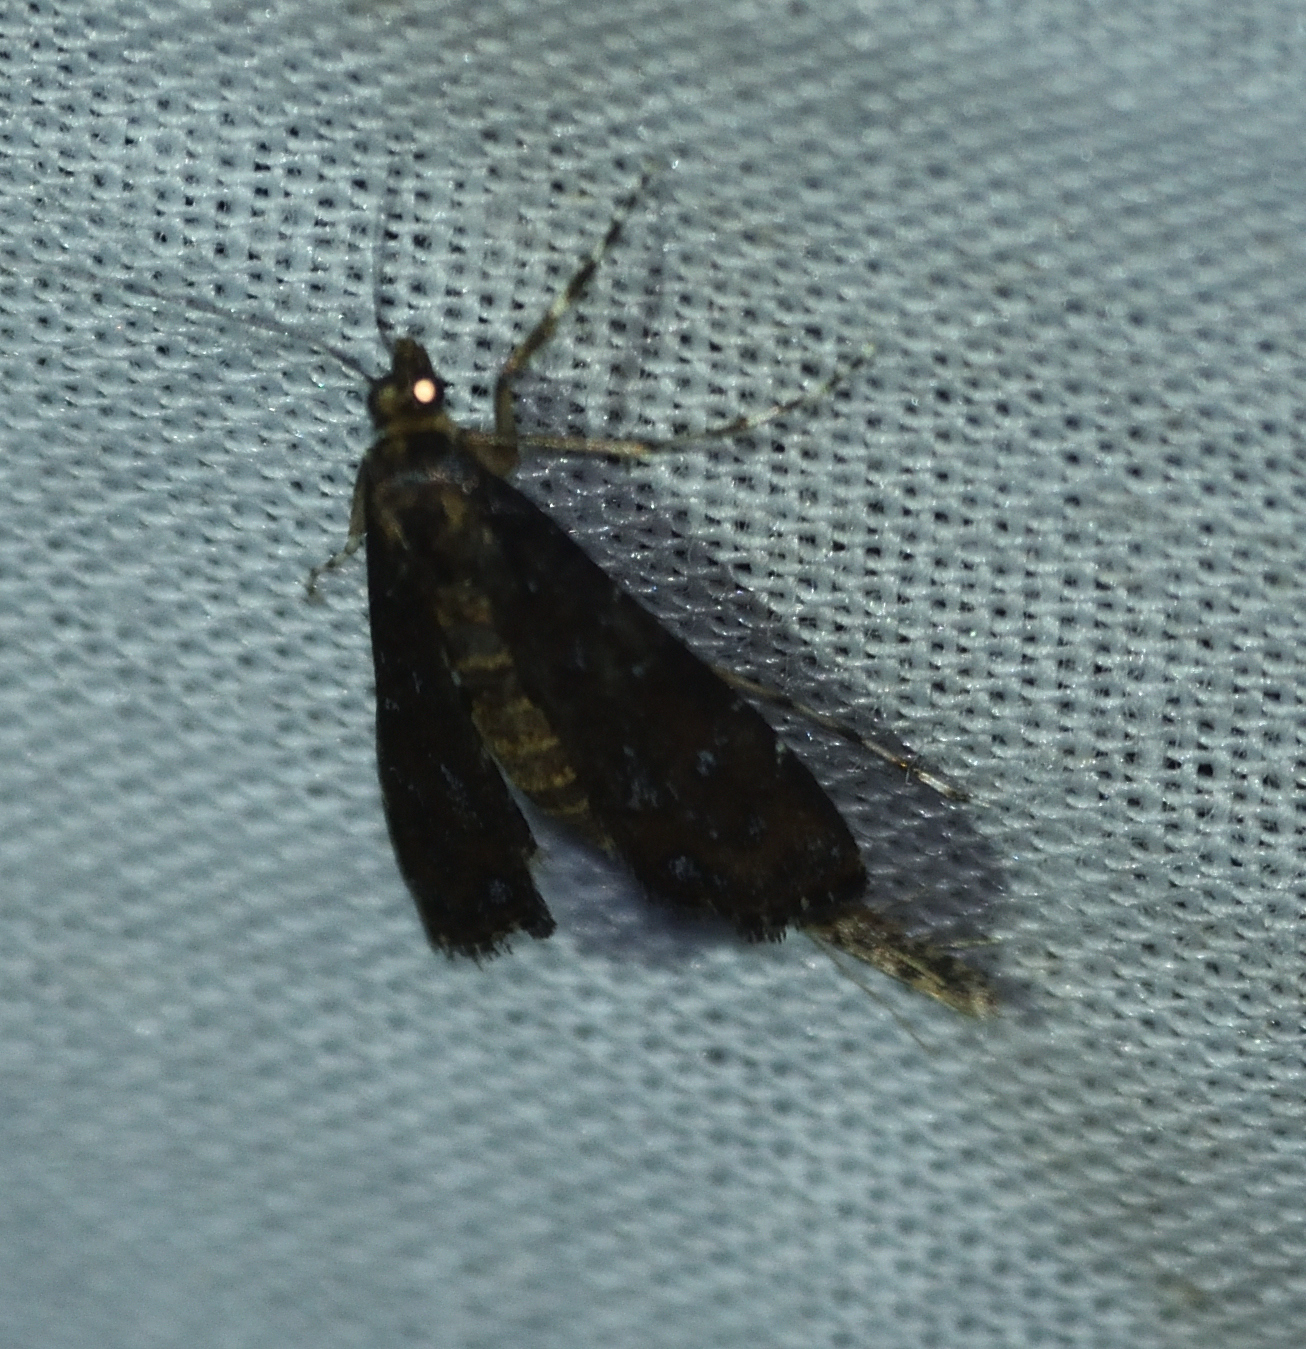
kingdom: Animalia
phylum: Arthropoda
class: Insecta
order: Lepidoptera
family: Crambidae
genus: Langessa
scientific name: Langessa nomophilalis
